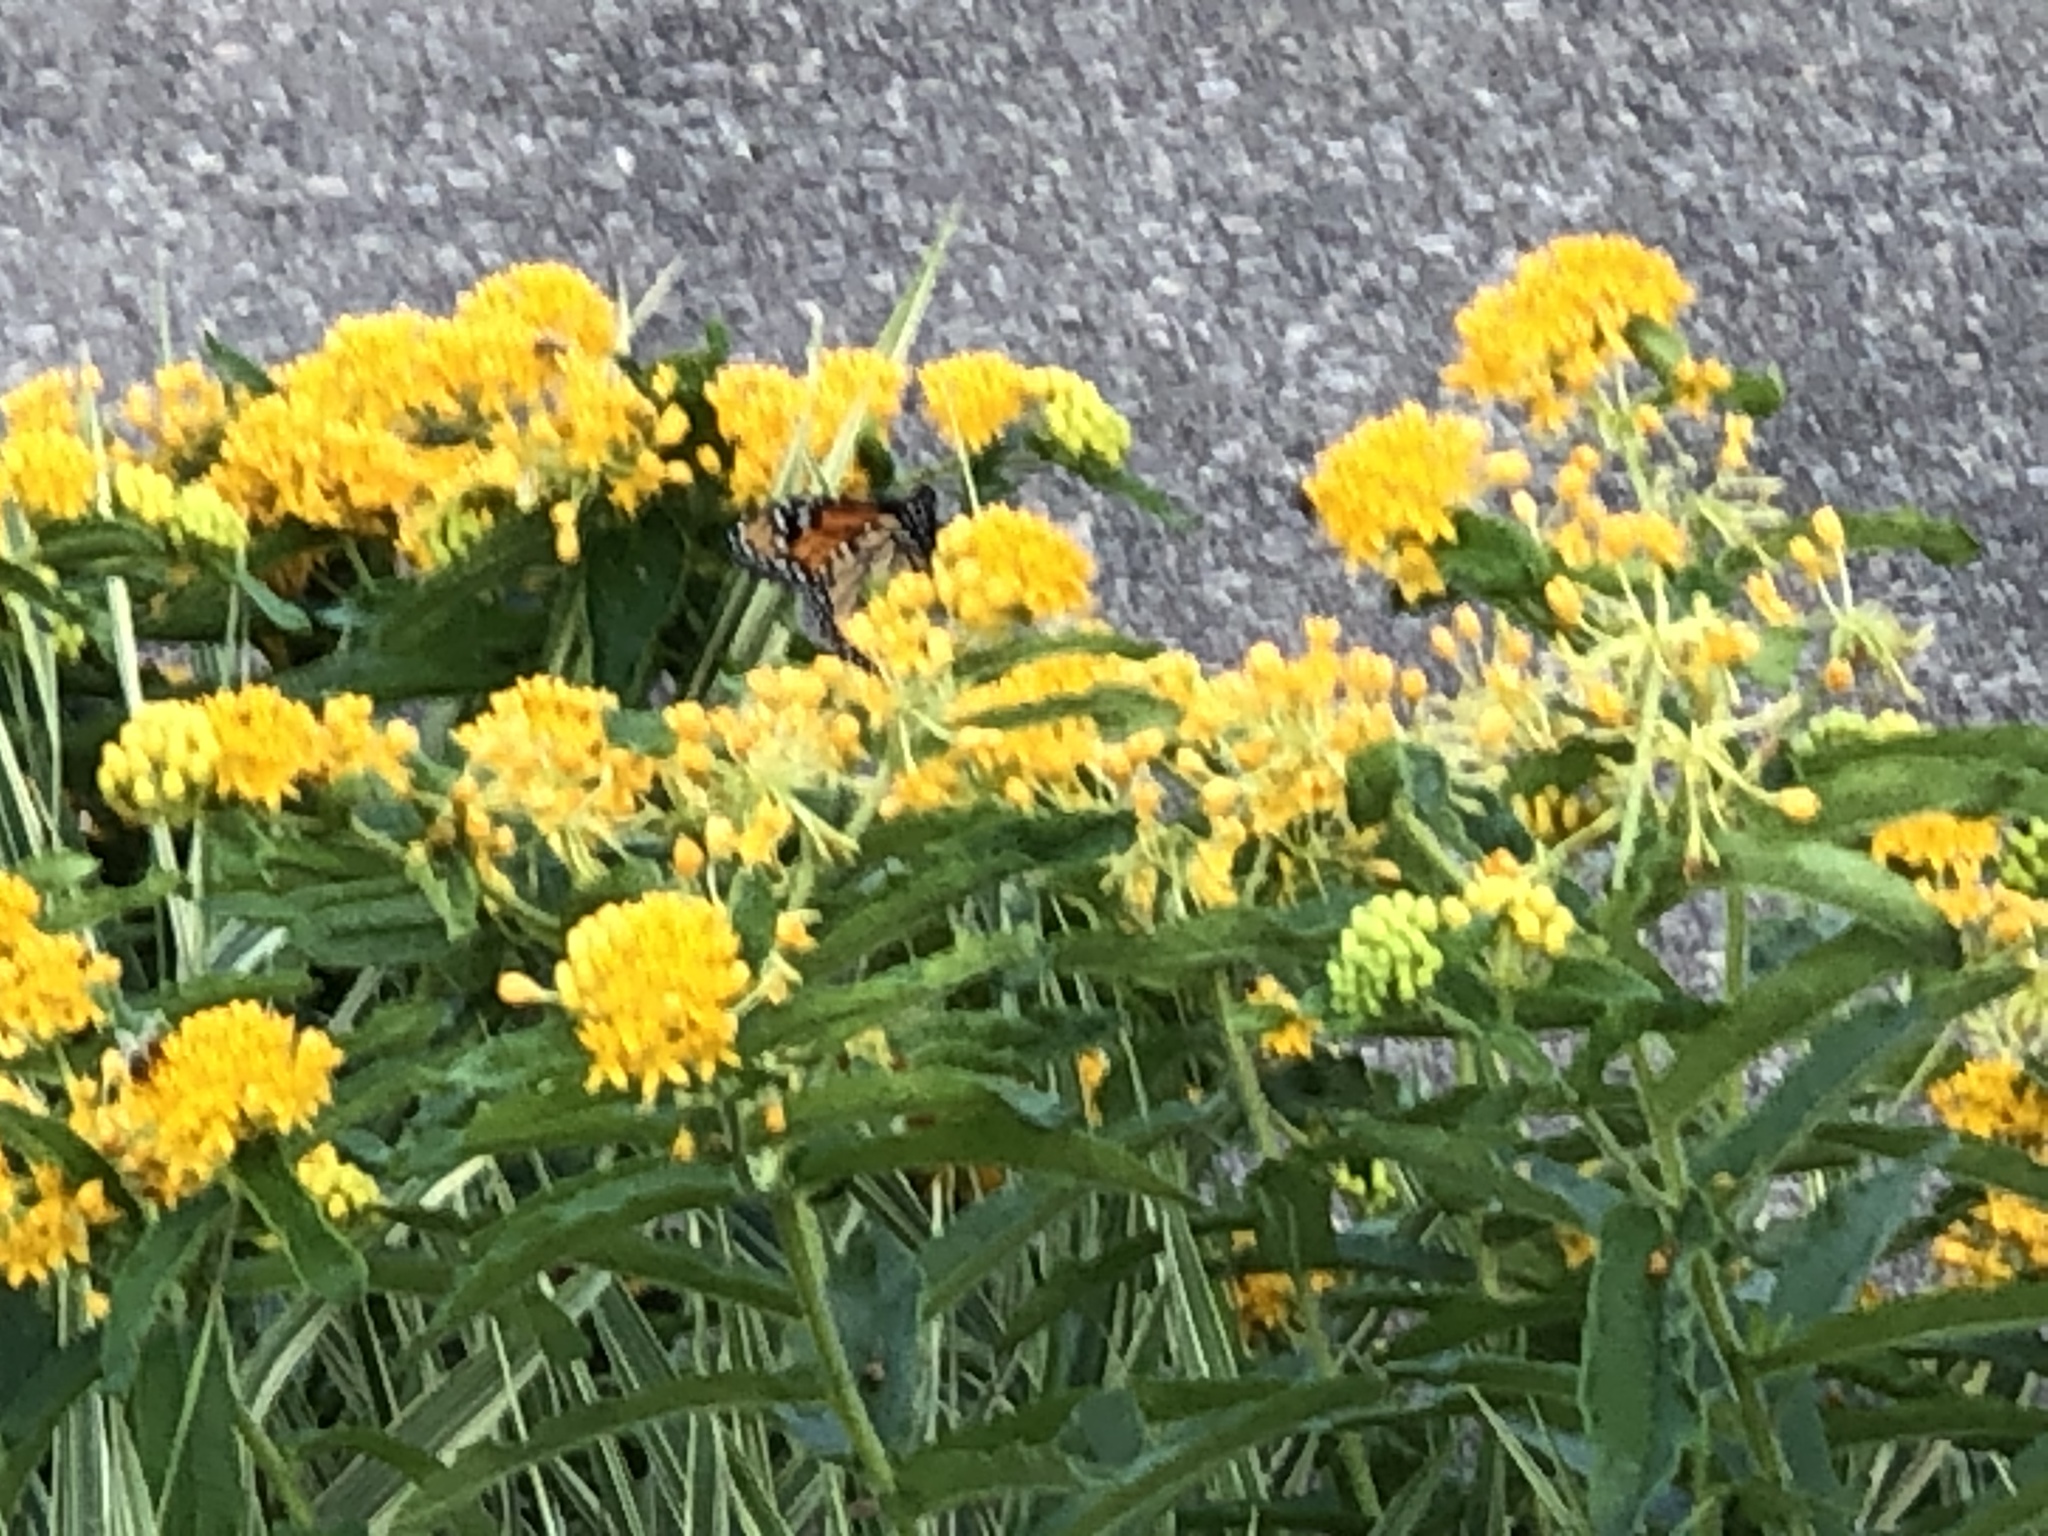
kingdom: Animalia
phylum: Arthropoda
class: Insecta
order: Lepidoptera
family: Nymphalidae
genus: Danaus
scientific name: Danaus plexippus
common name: Monarch
